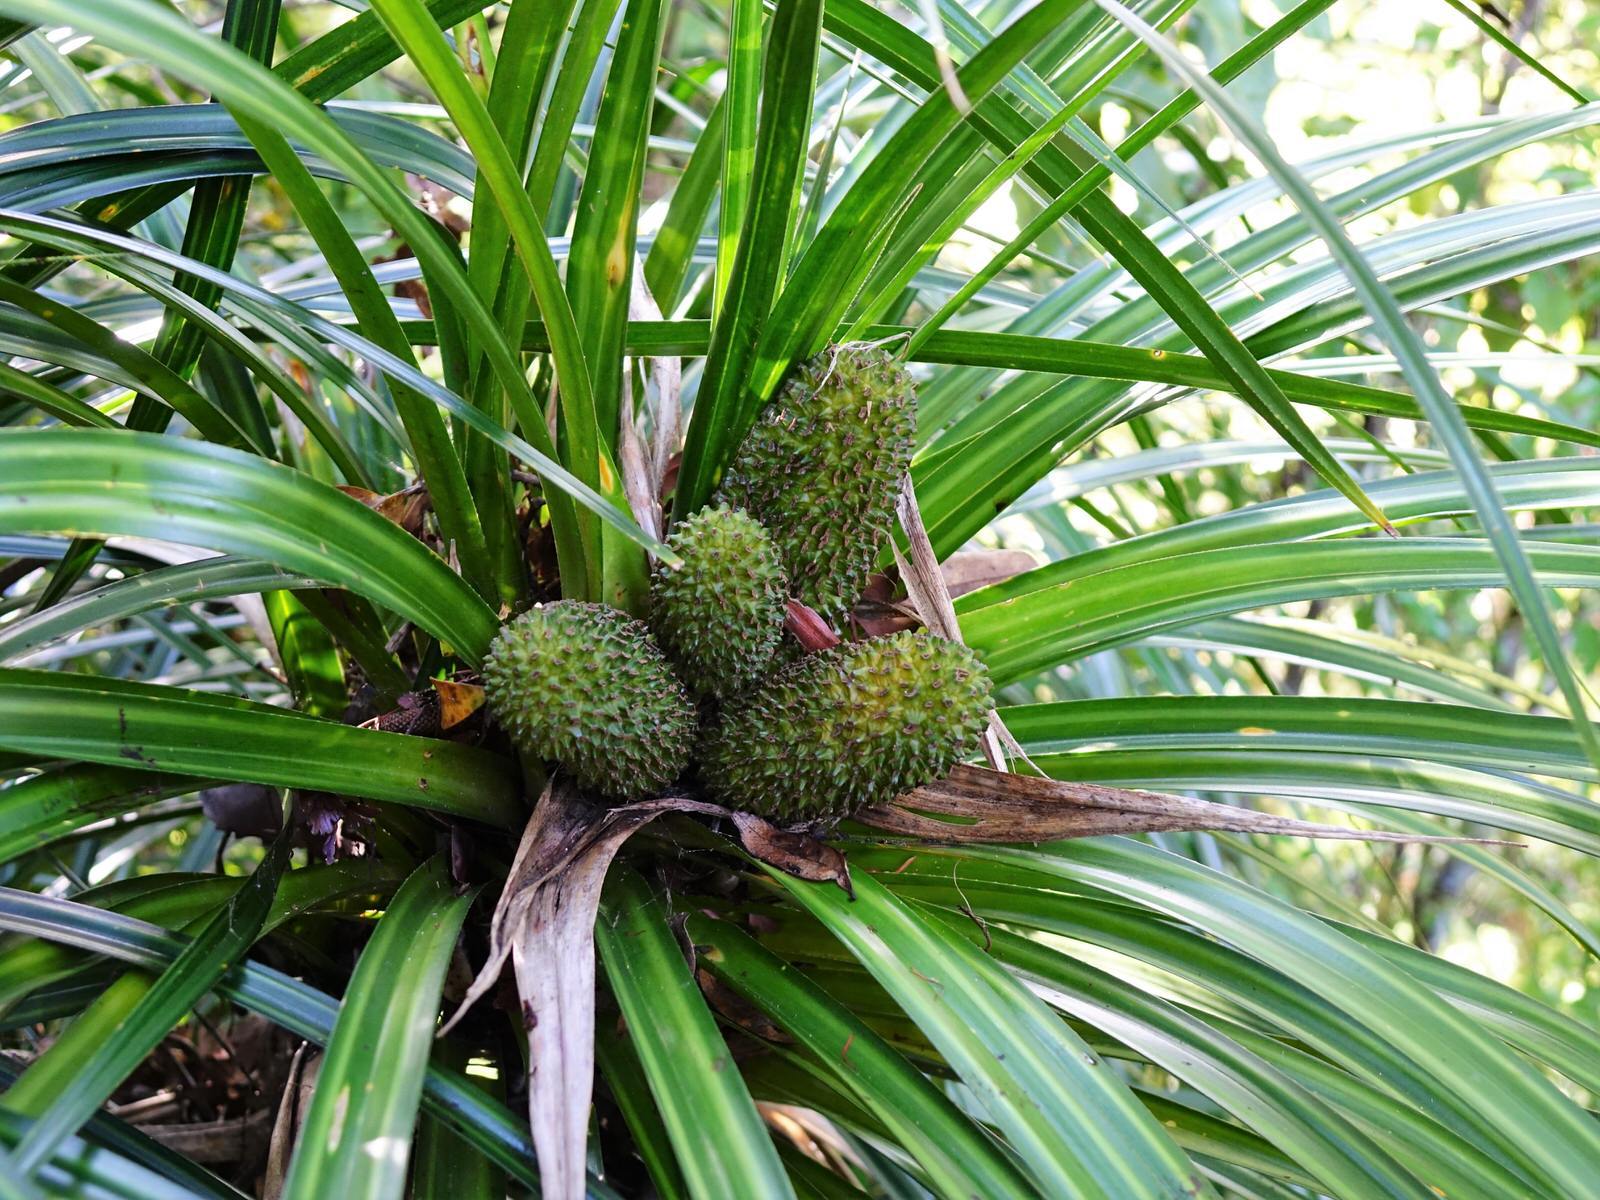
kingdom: Plantae
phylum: Tracheophyta
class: Liliopsida
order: Pandanales
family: Pandanaceae
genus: Freycinetia
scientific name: Freycinetia banksii
